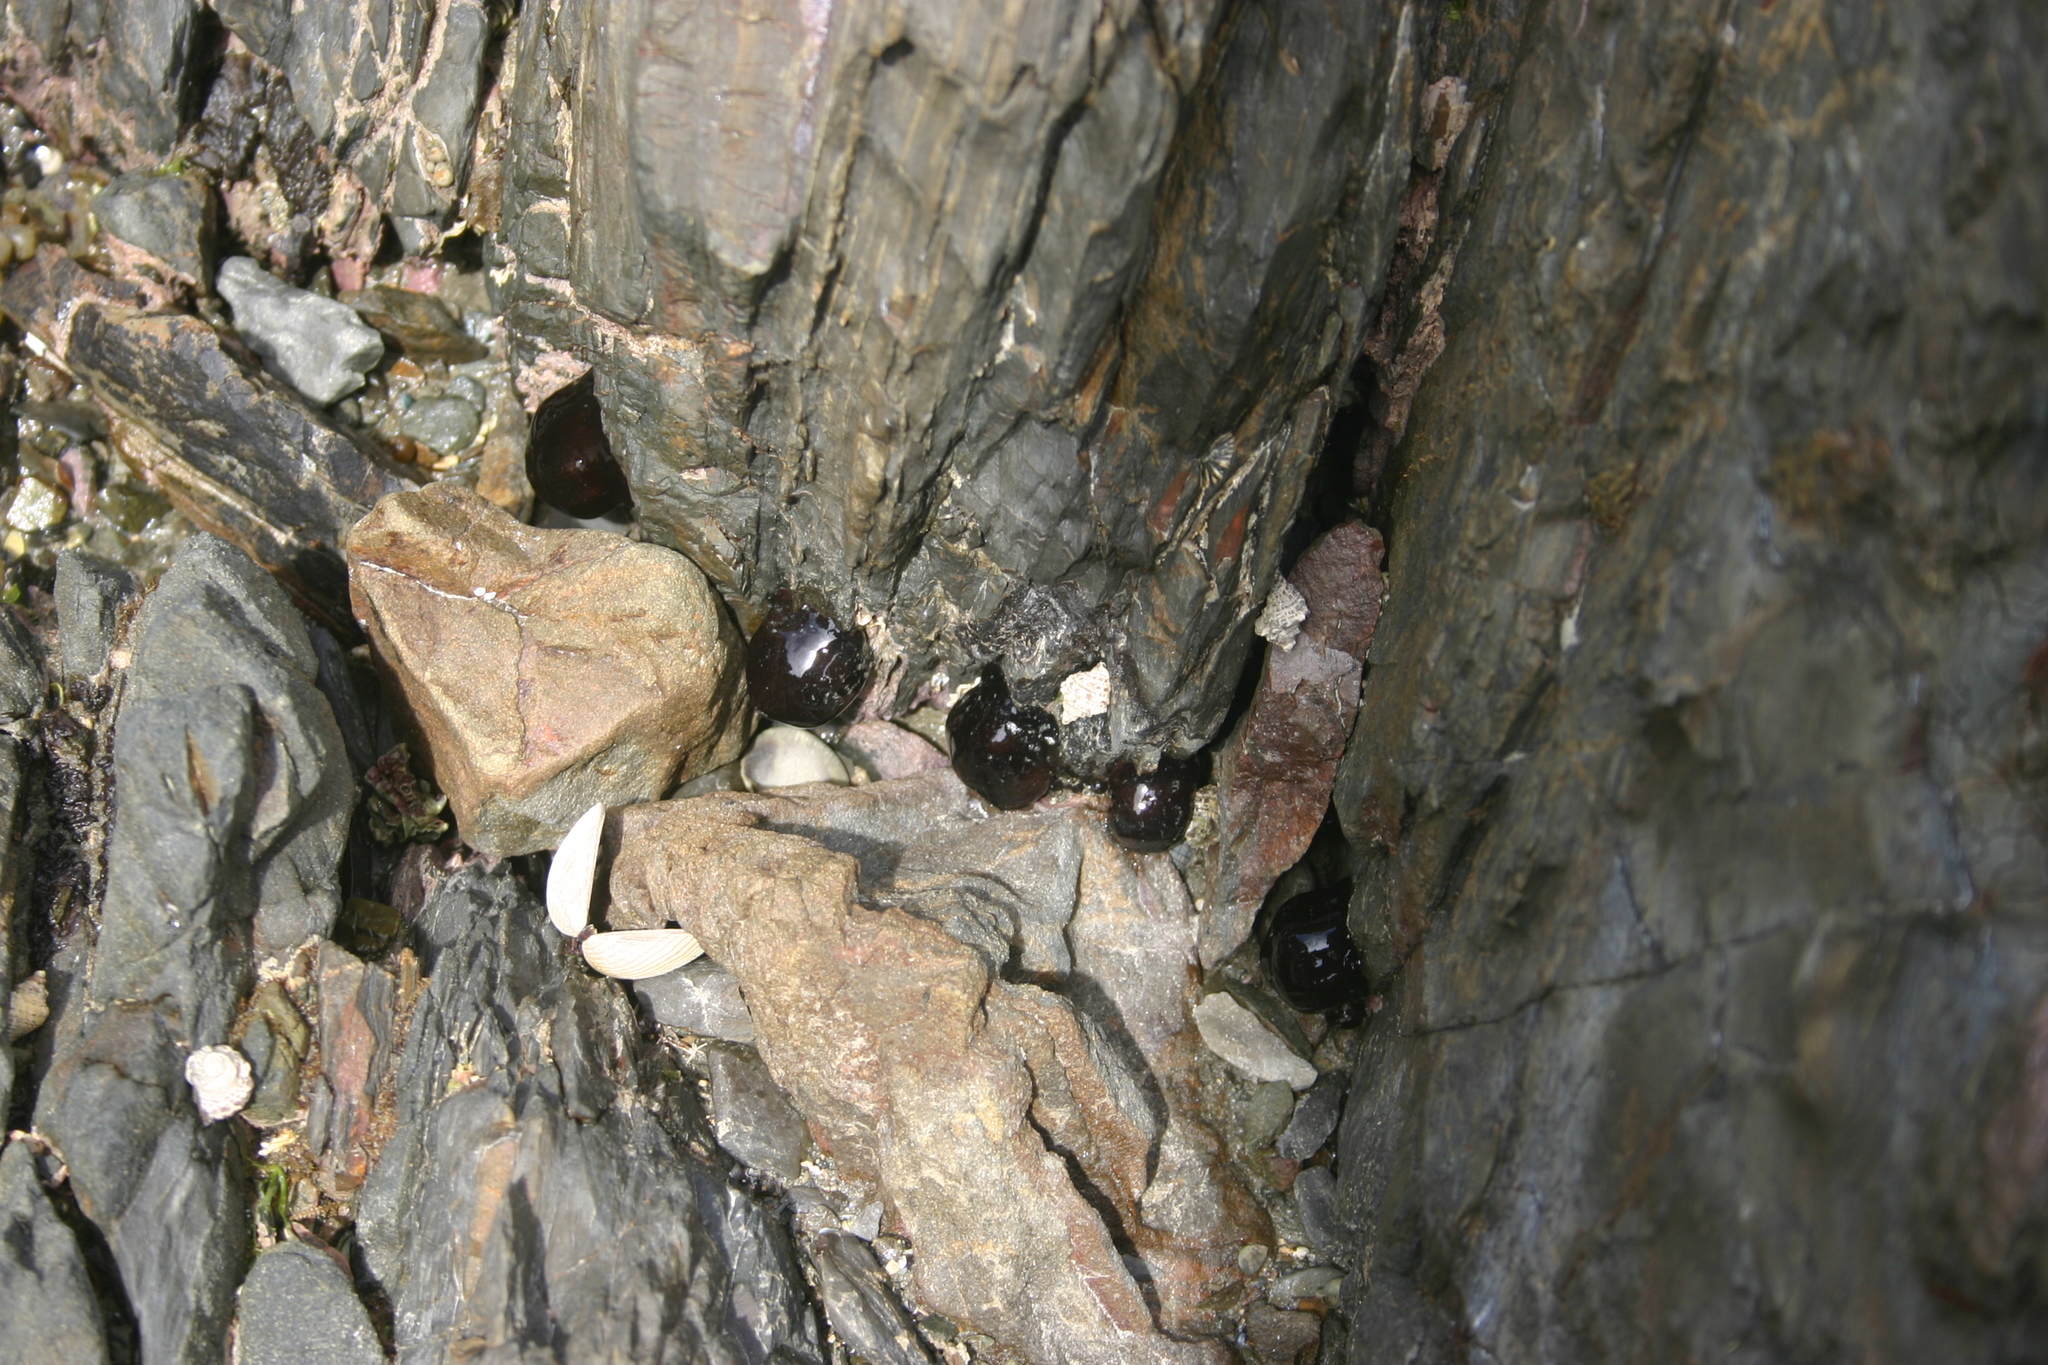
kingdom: Animalia
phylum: Cnidaria
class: Anthozoa
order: Actiniaria
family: Actiniidae
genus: Actinia
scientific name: Actinia tenebrosa
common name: Waratah anemone
